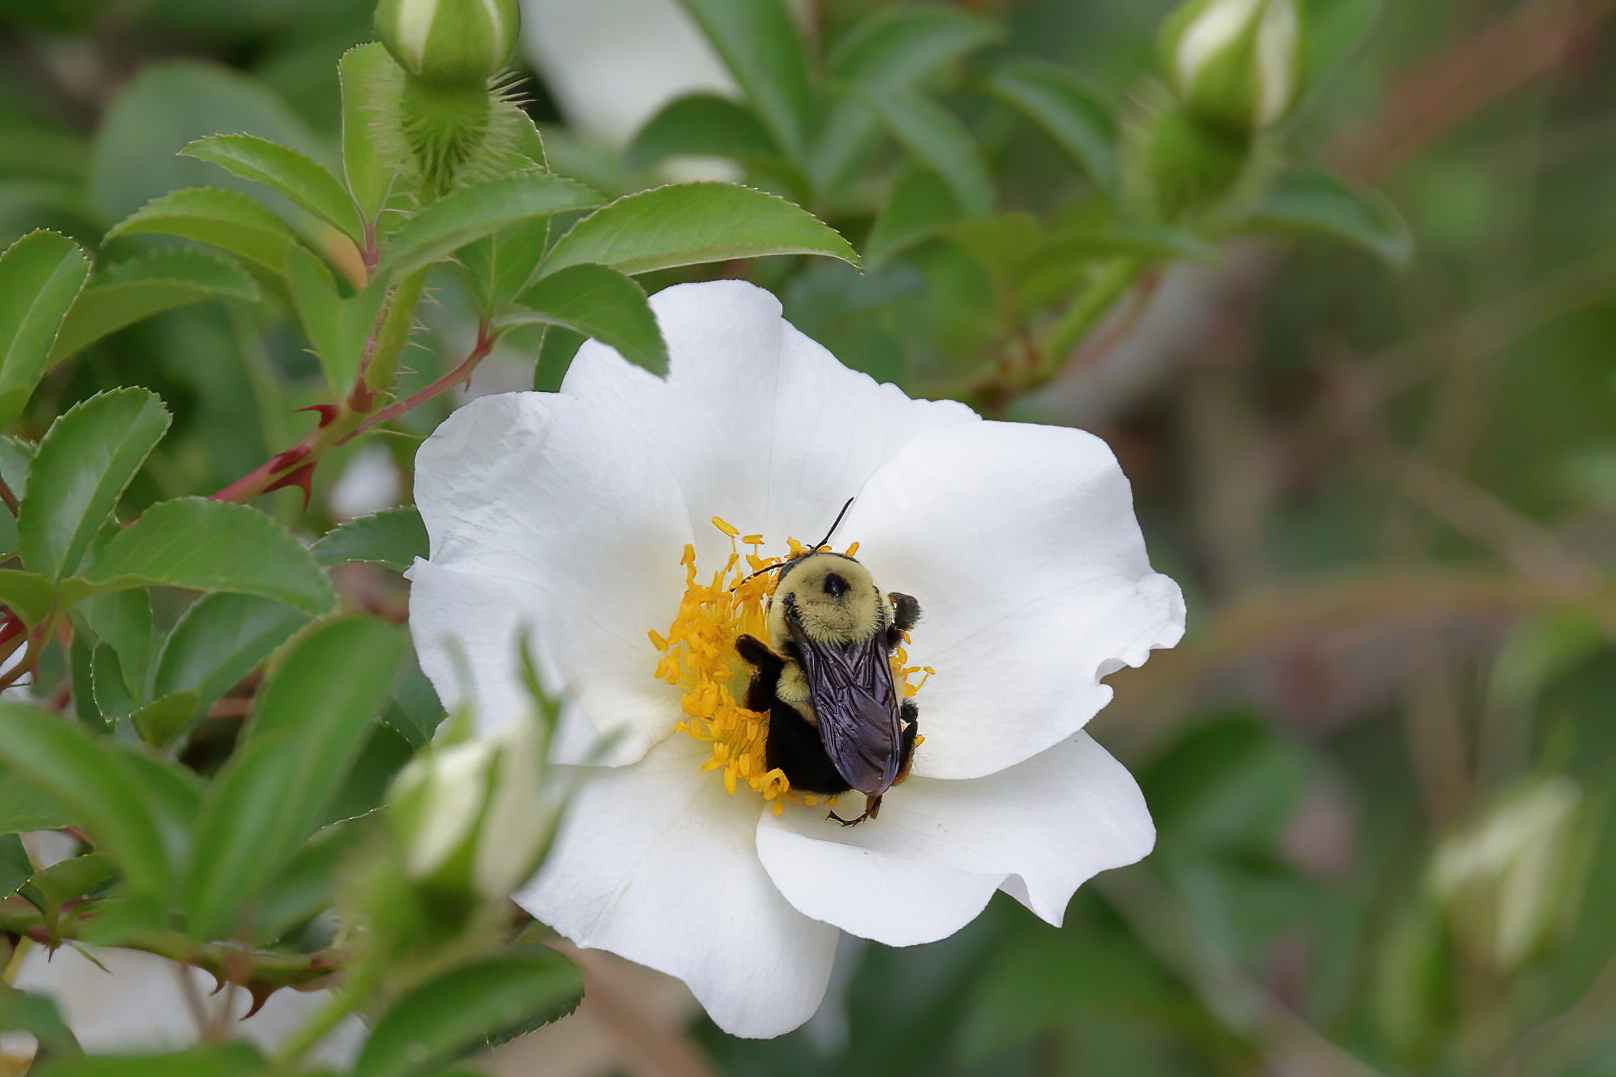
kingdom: Animalia
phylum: Arthropoda
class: Insecta
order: Hymenoptera
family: Apidae
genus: Bombus
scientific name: Bombus griseocollis
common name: Brown-belted bumble bee
